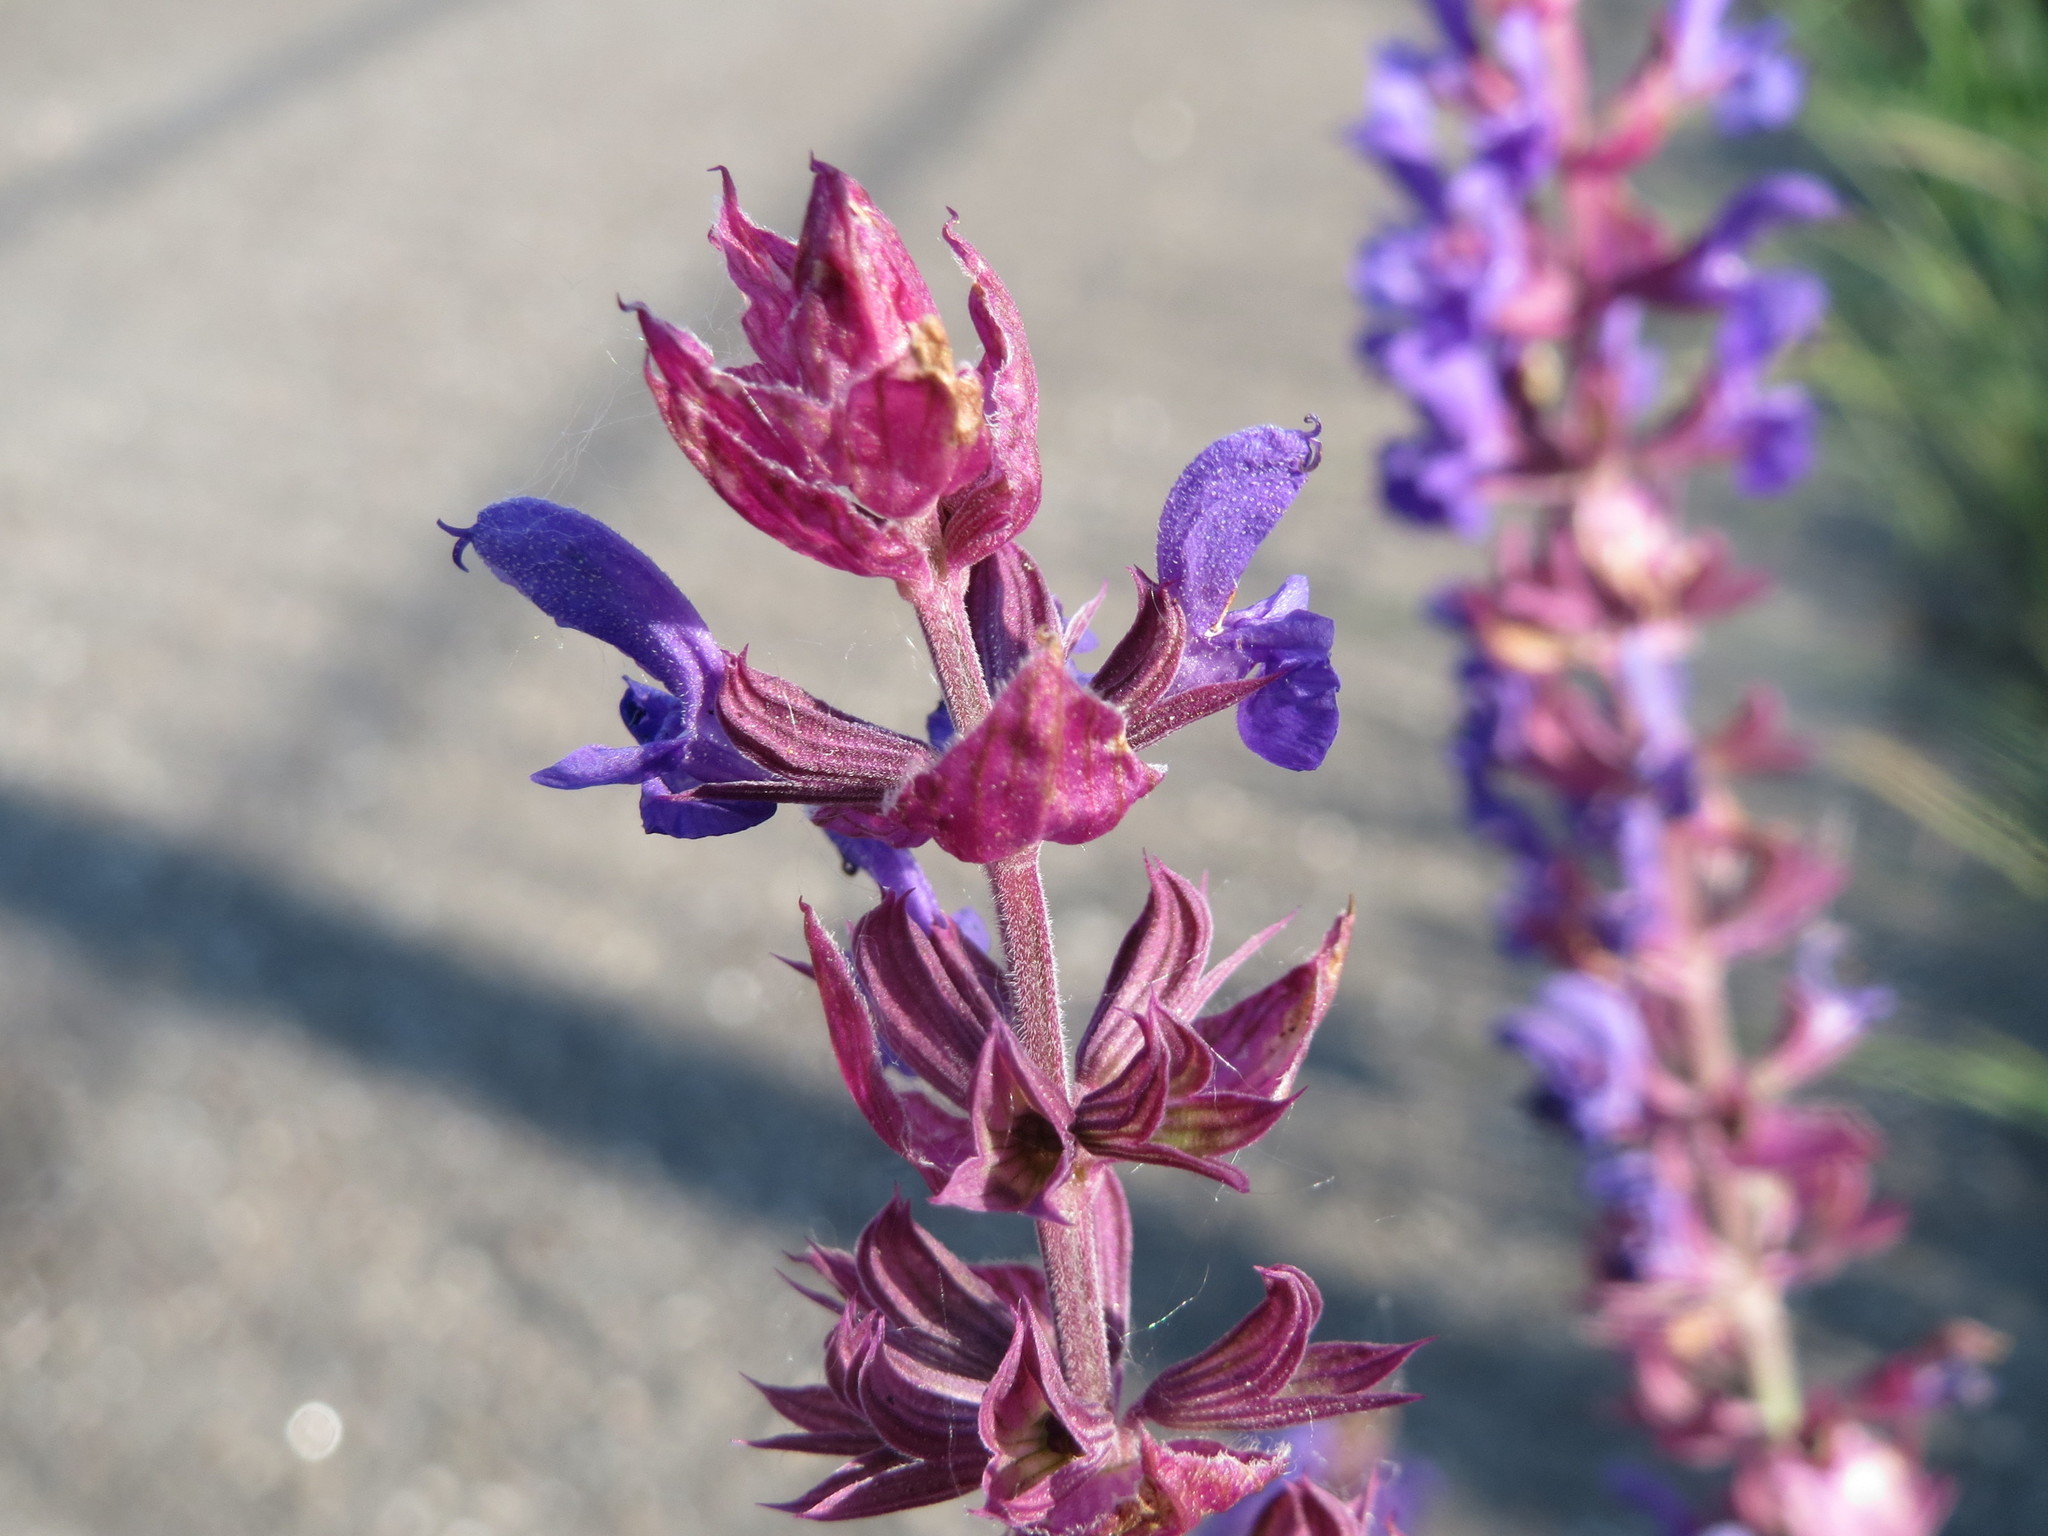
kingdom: Plantae
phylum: Tracheophyta
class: Magnoliopsida
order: Lamiales
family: Lamiaceae
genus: Salvia
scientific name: Salvia nemorosa
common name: Balkan clary
